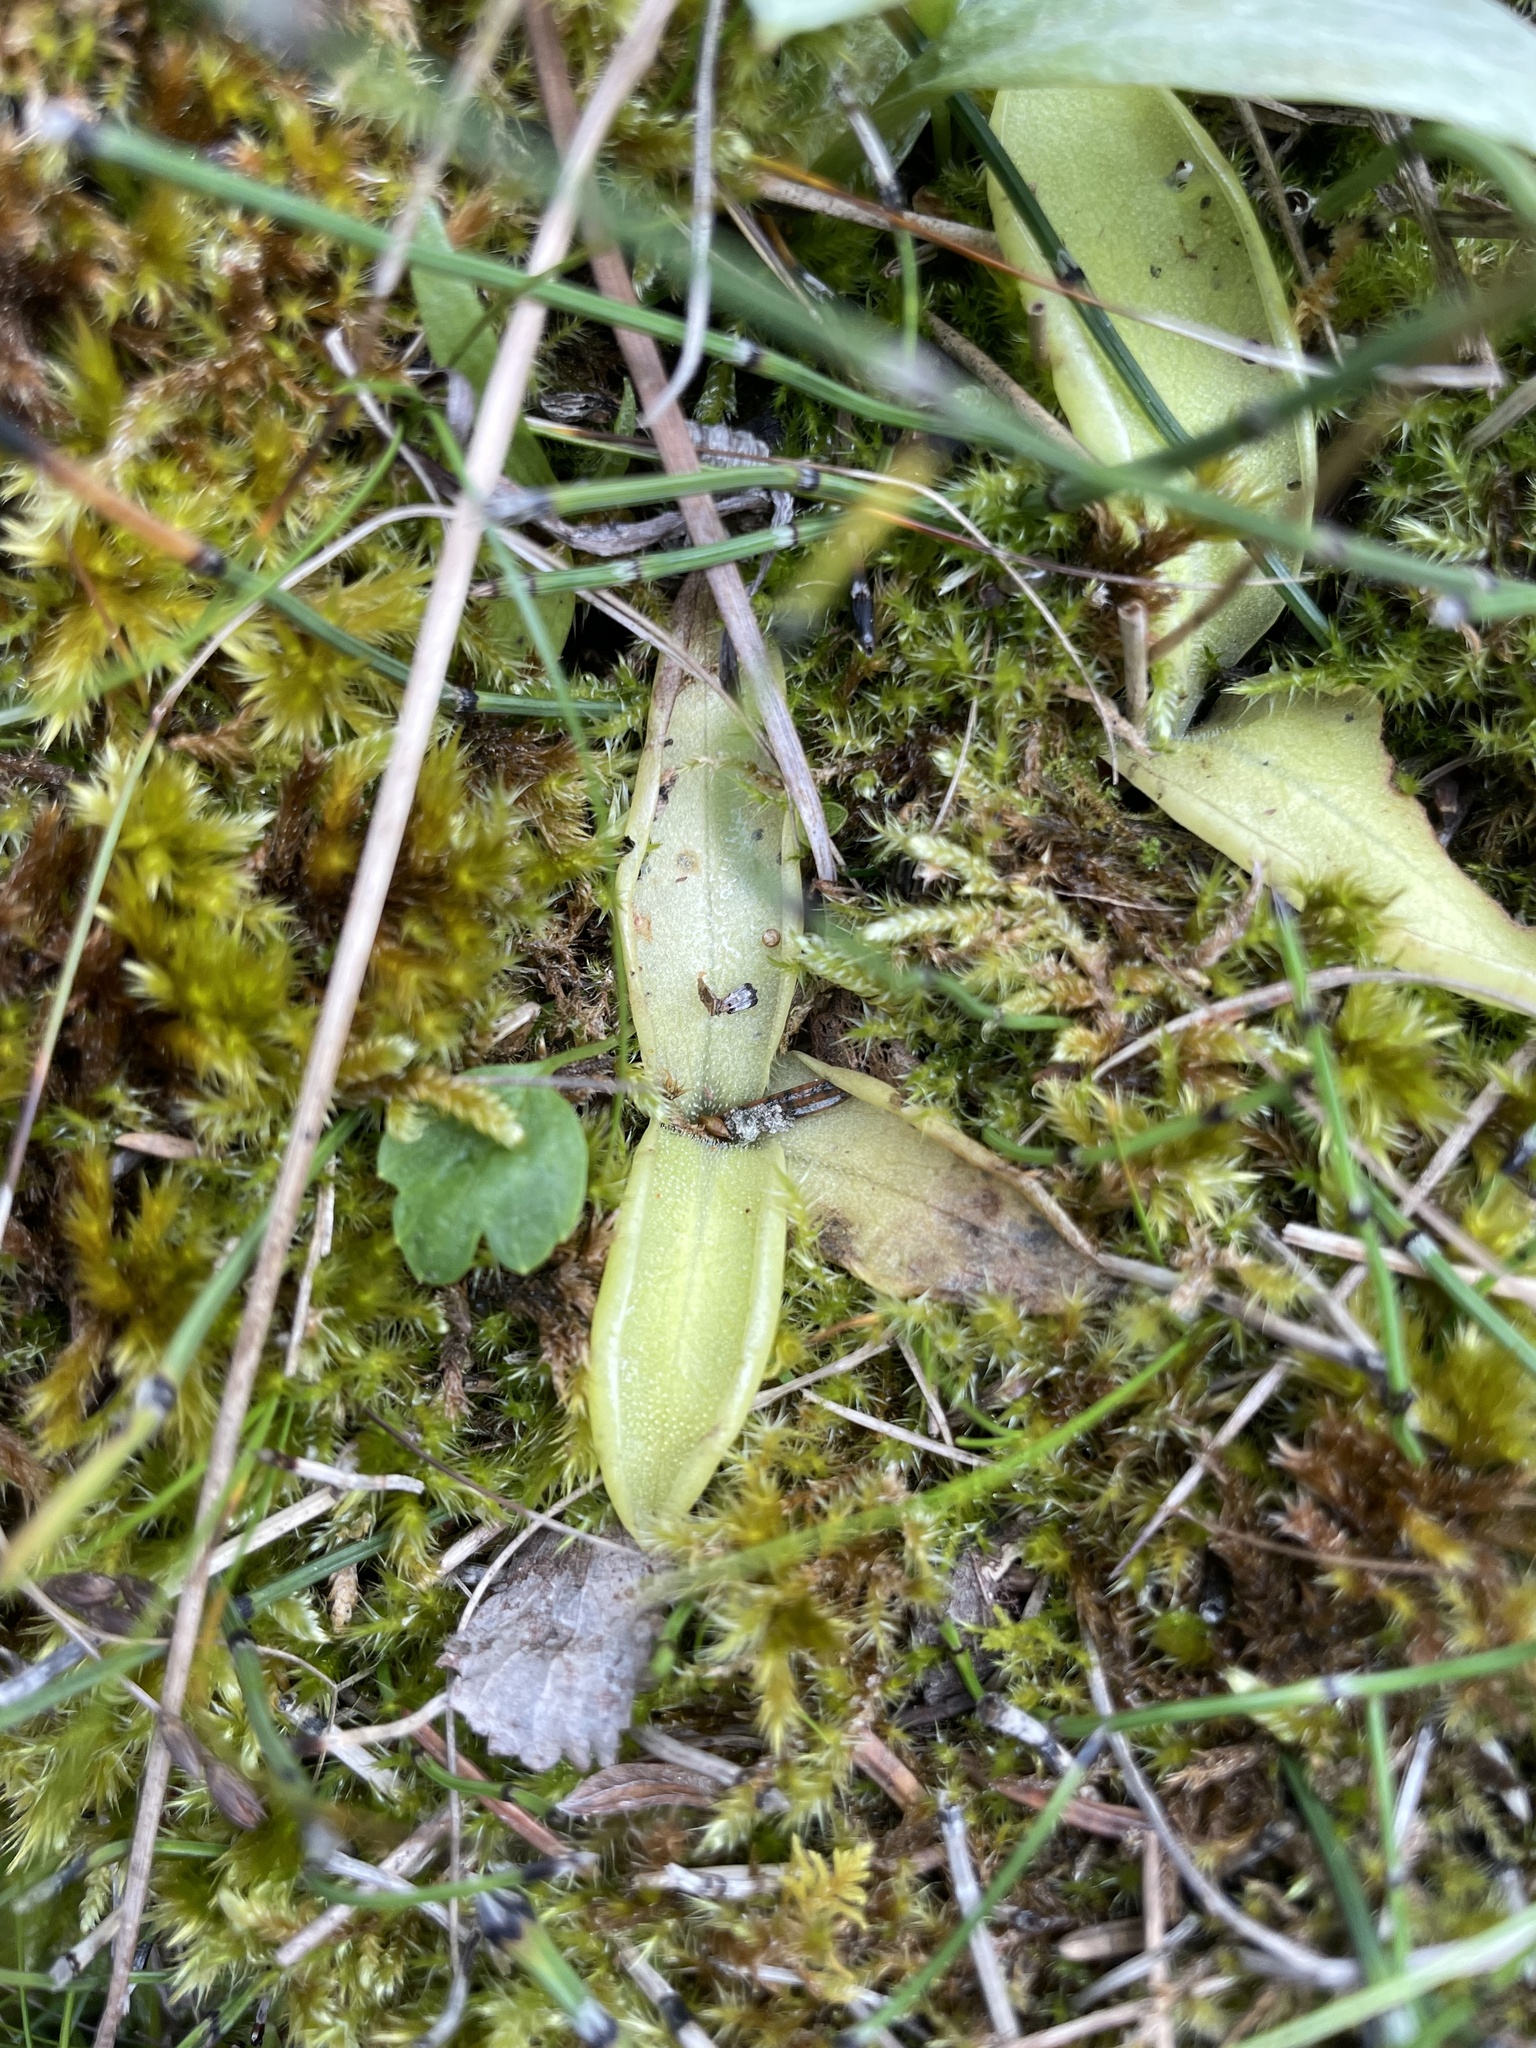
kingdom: Plantae
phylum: Tracheophyta
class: Magnoliopsida
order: Lamiales
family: Lentibulariaceae
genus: Pinguicula
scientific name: Pinguicula vulgaris
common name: Common butterwort
